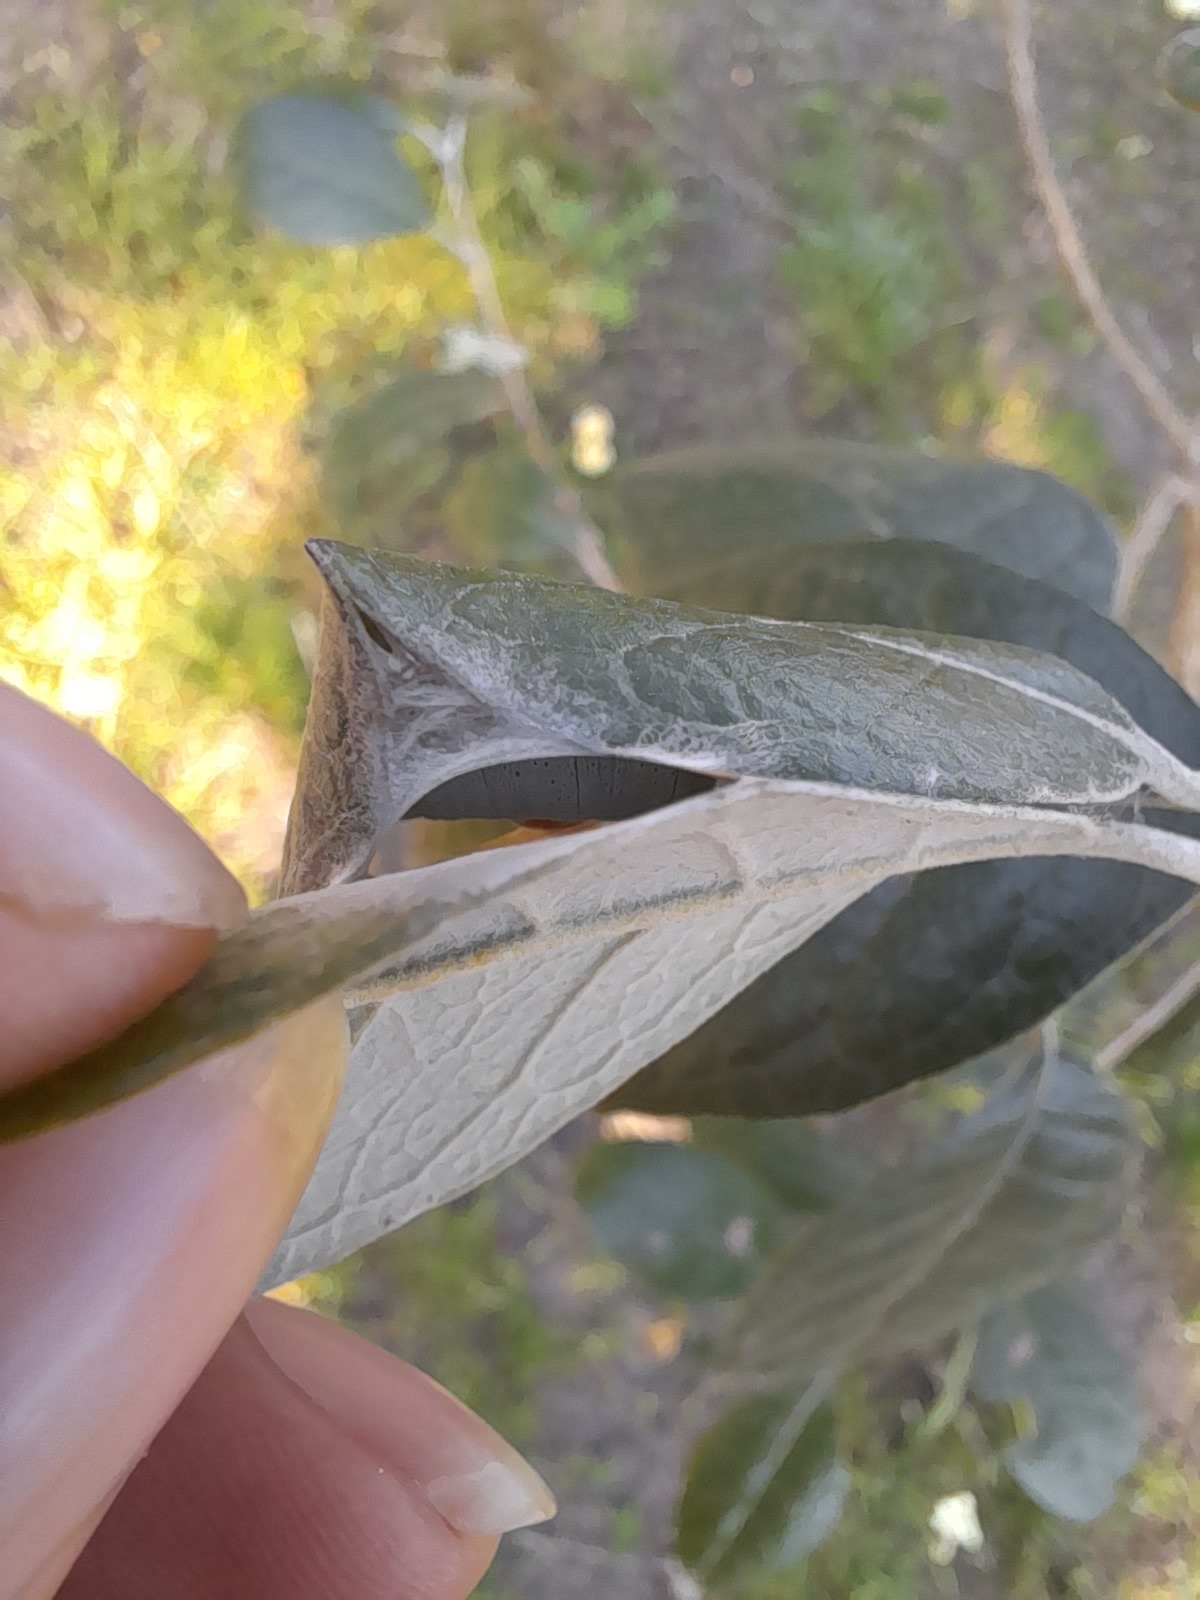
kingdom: Animalia
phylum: Arthropoda
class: Insecta
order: Lepidoptera
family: Hesperiidae
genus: Phocides
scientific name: Phocides polybius
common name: Guava skipper
